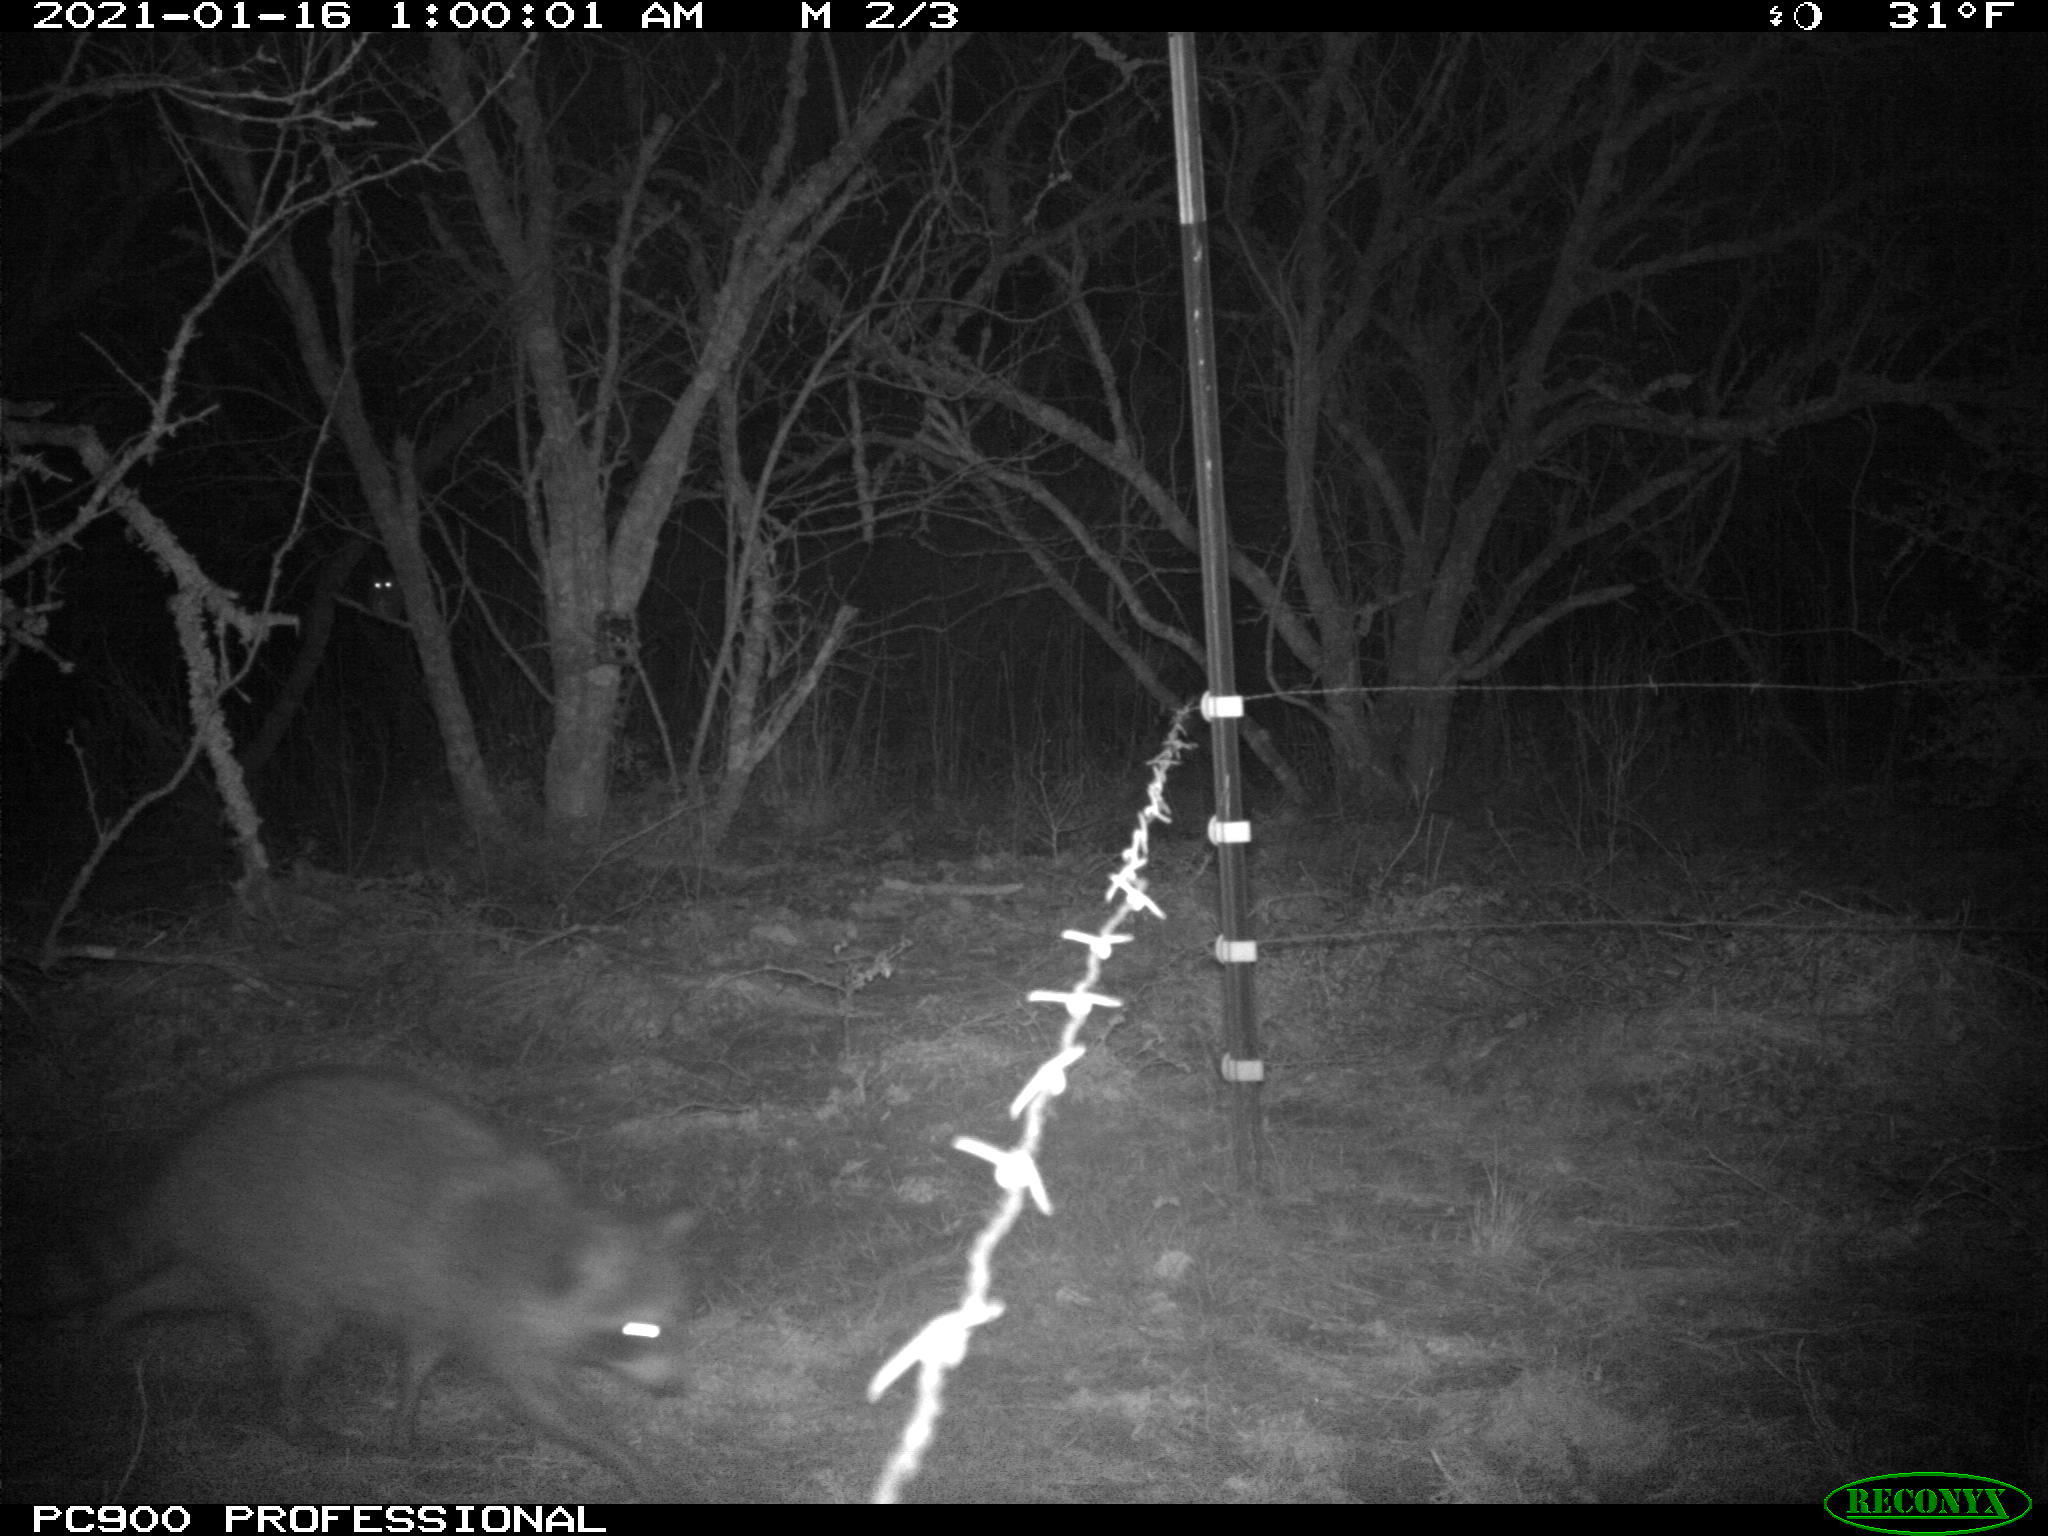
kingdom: Animalia
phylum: Chordata
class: Mammalia
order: Carnivora
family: Procyonidae
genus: Procyon
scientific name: Procyon lotor
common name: Raccoon
